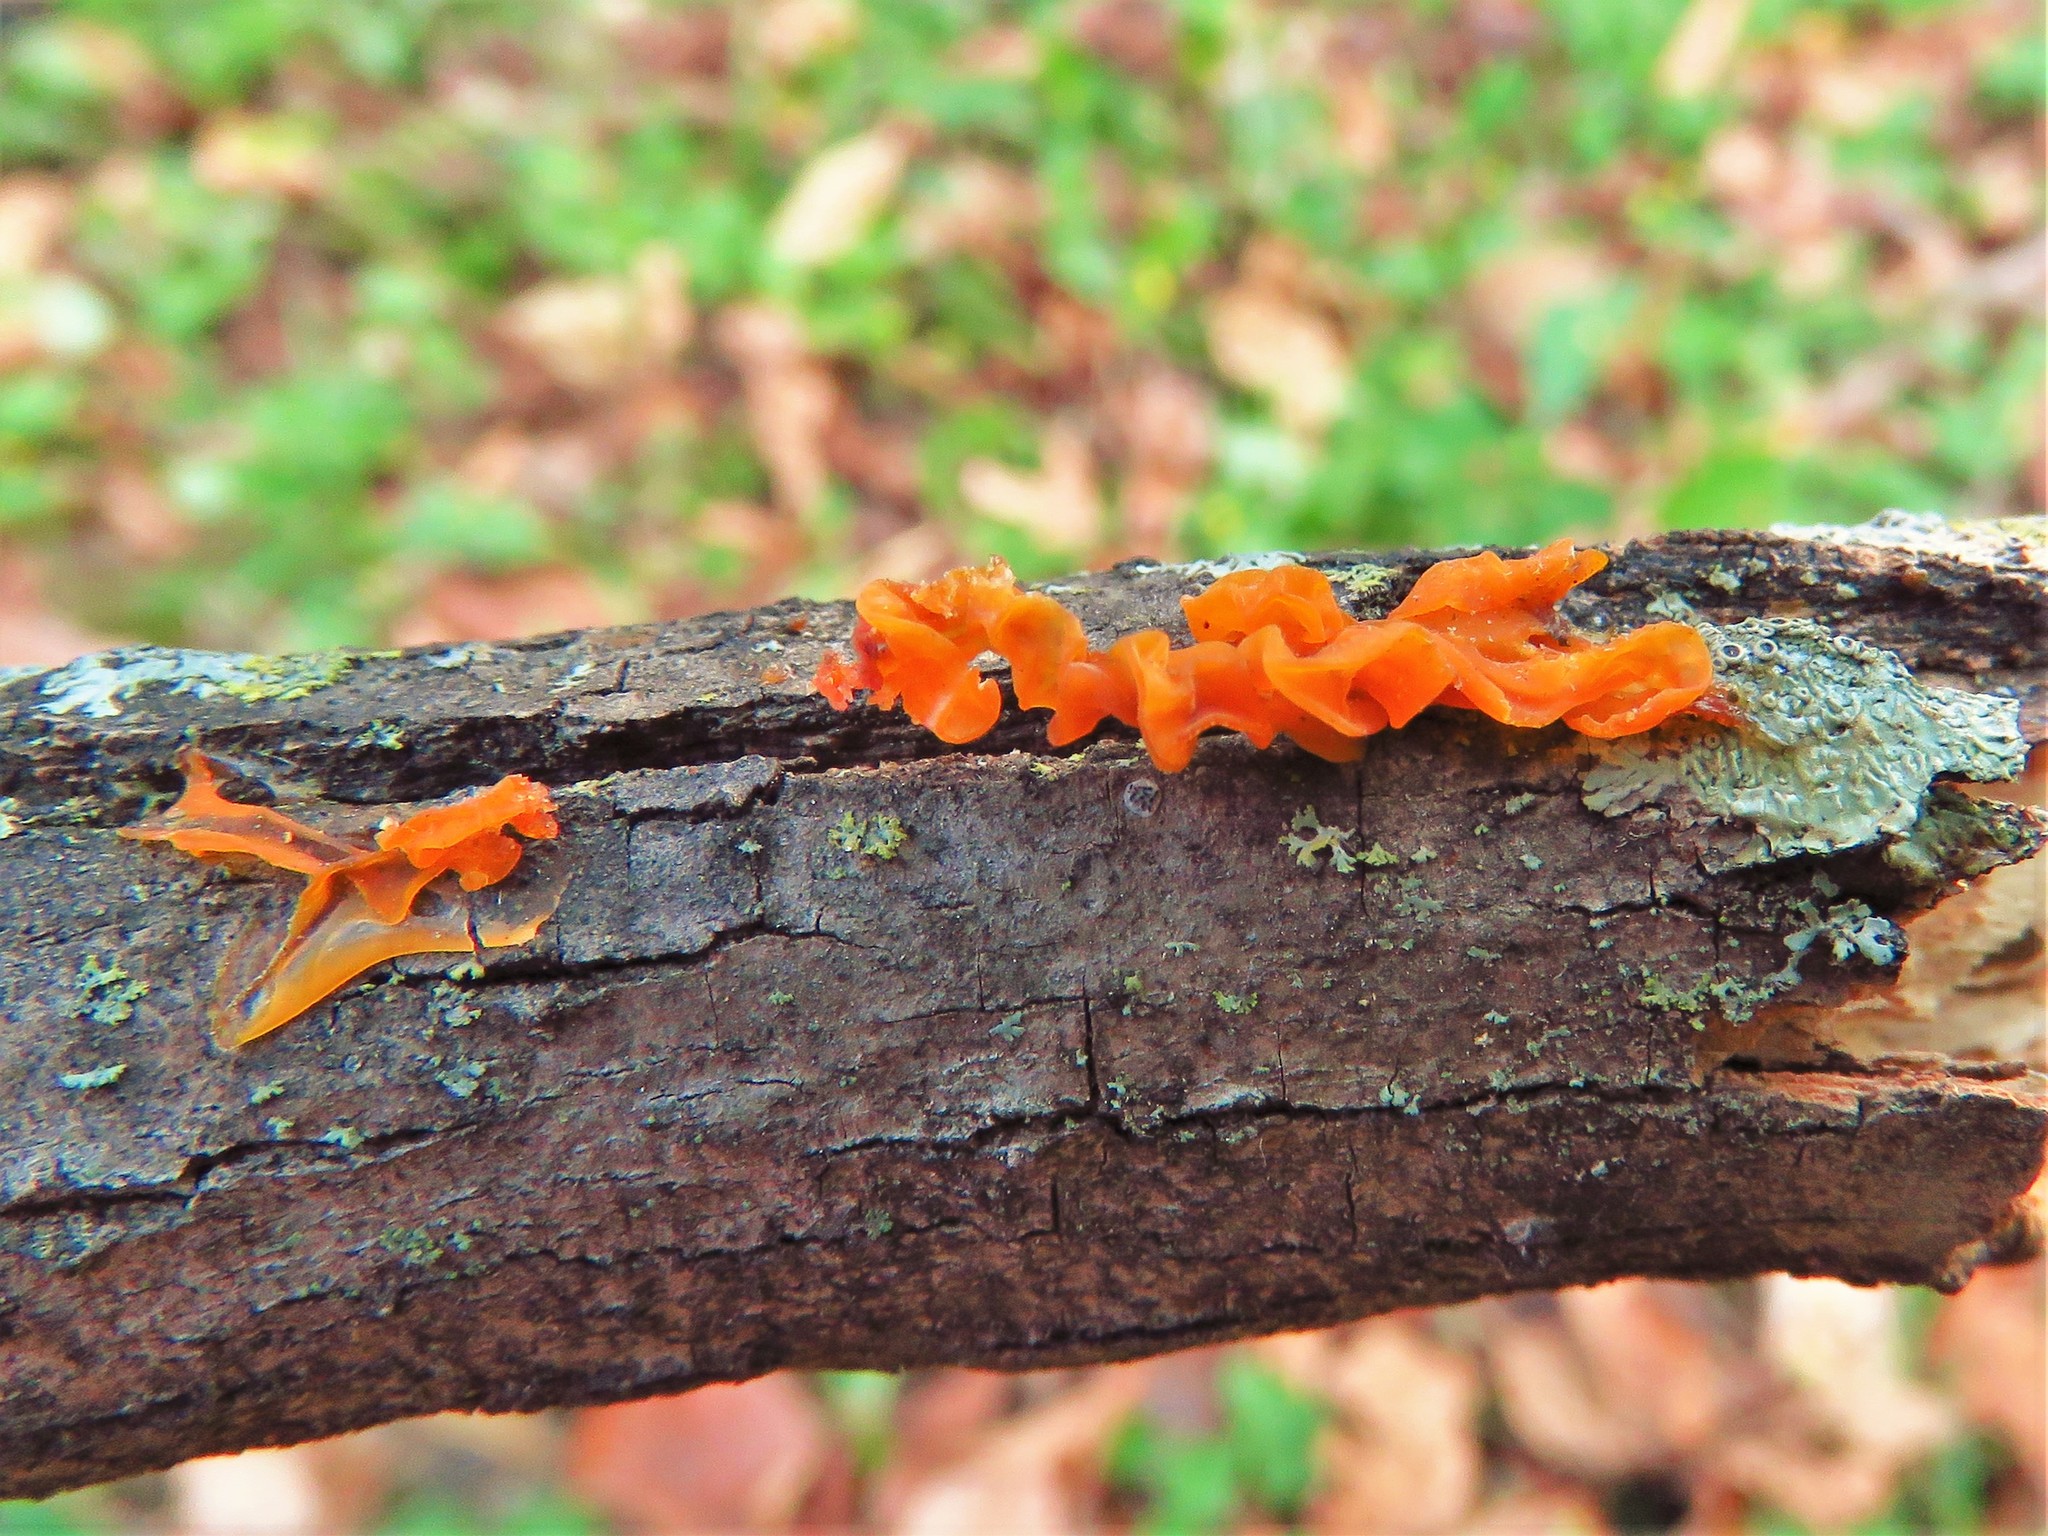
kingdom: Fungi
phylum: Basidiomycota
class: Tremellomycetes
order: Tremellales
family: Naemateliaceae
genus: Naematelia
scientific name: Naematelia aurantia
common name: Golden ear
